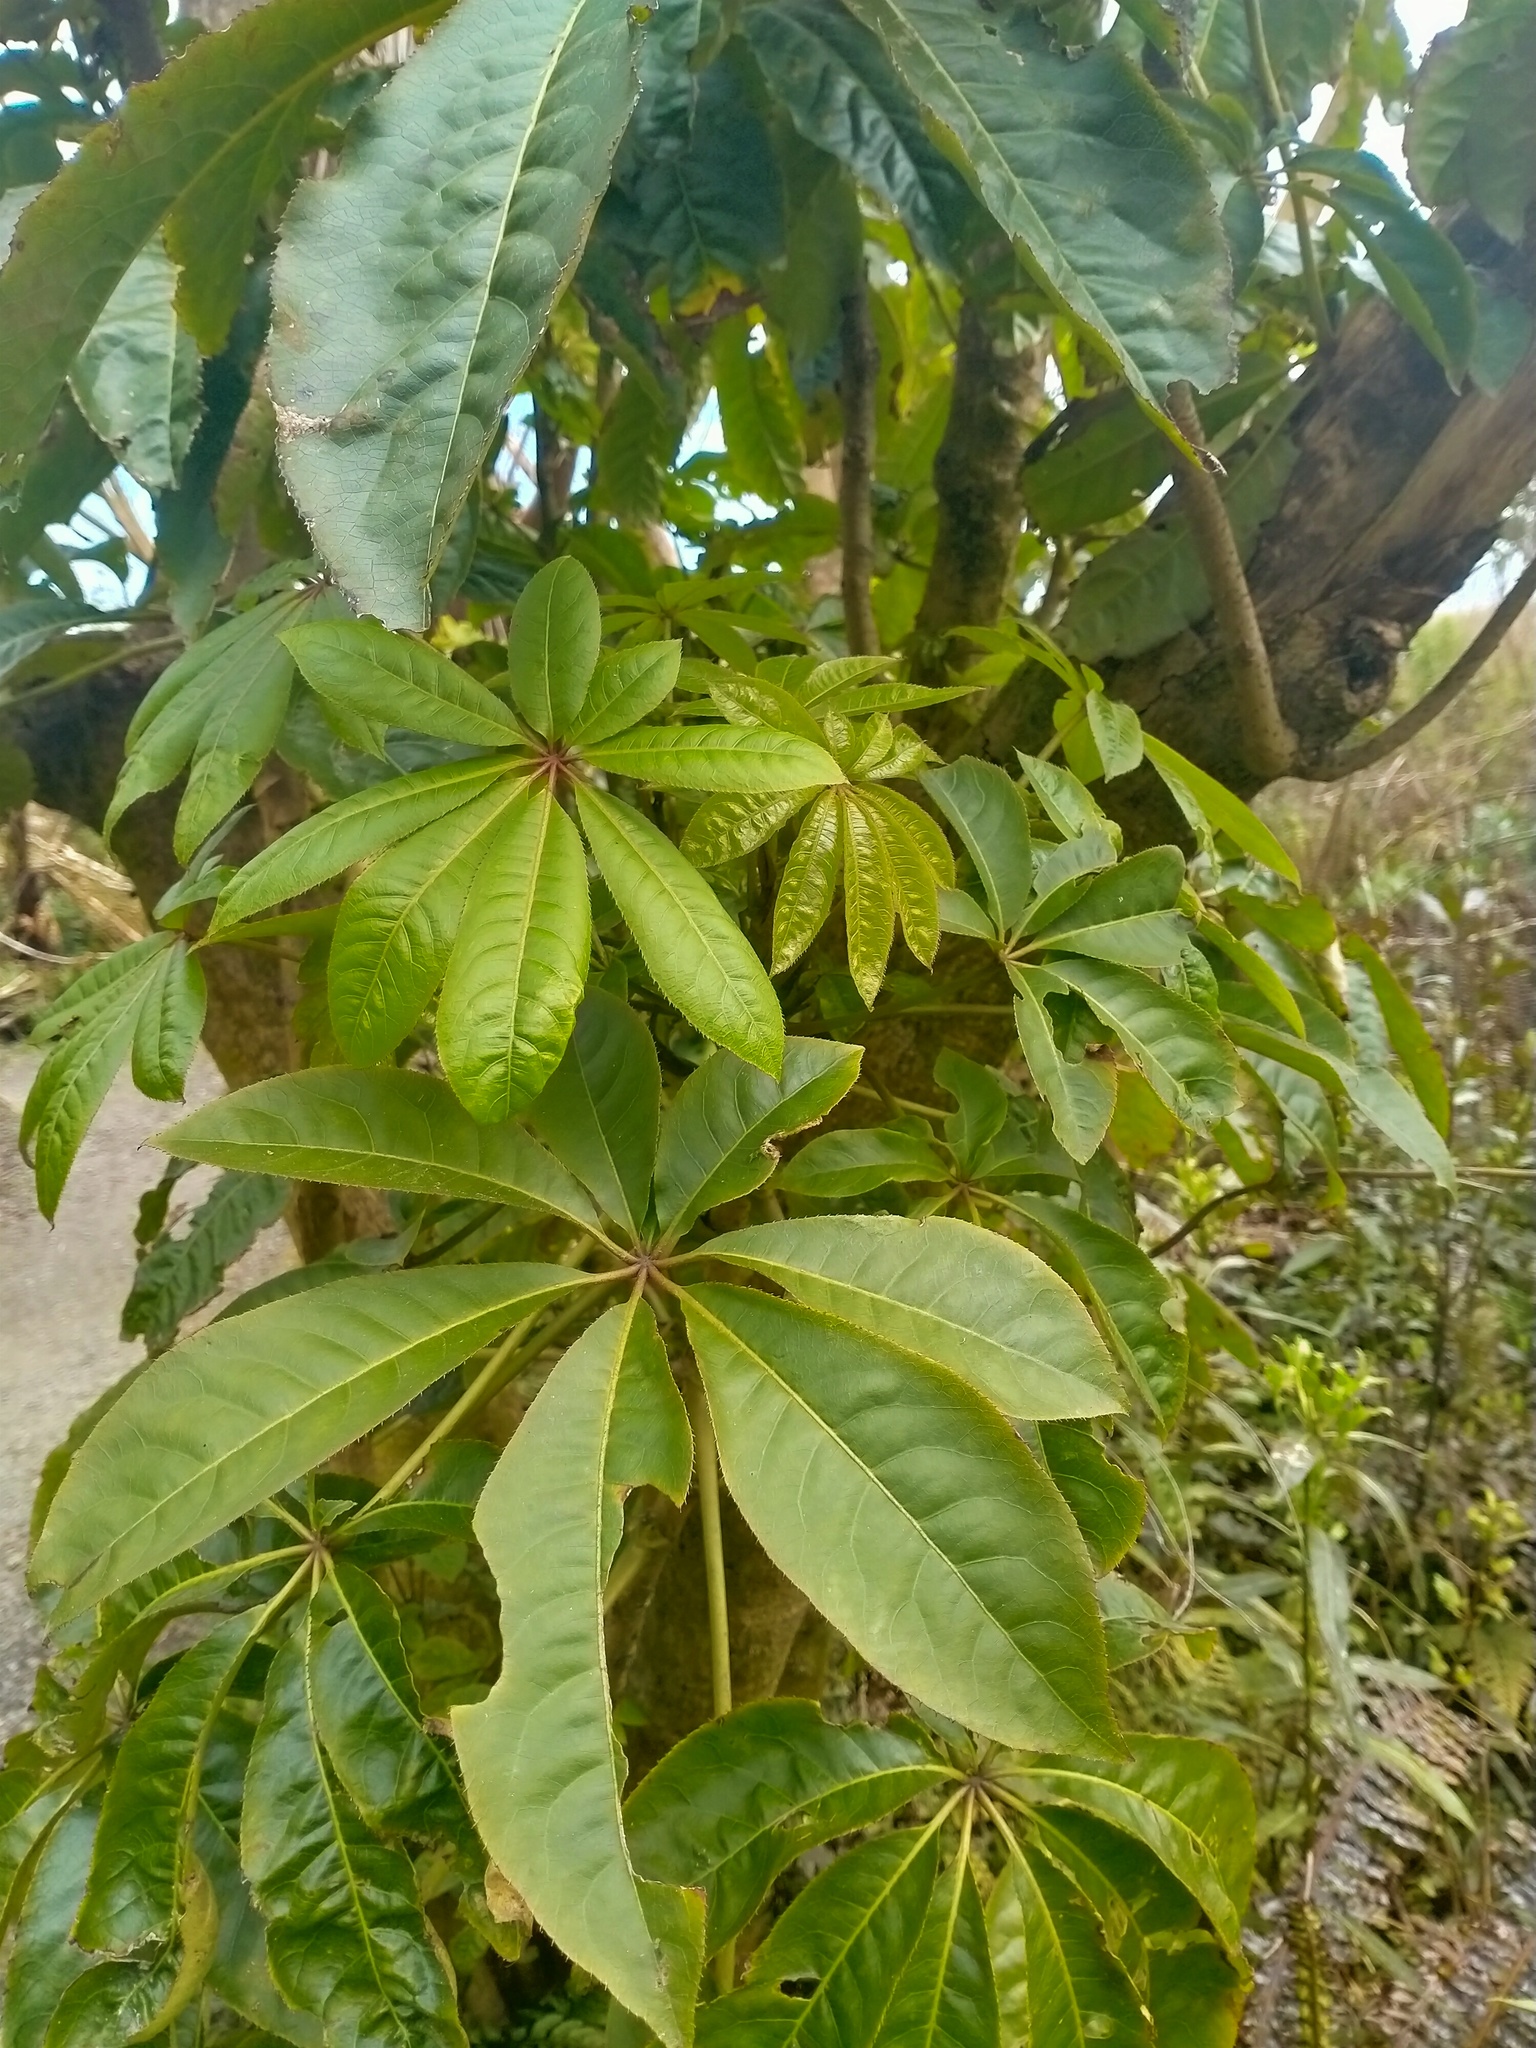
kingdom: Plantae
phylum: Tracheophyta
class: Magnoliopsida
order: Apiales
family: Araliaceae
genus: Schefflera
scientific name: Schefflera digitata
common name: Pate
